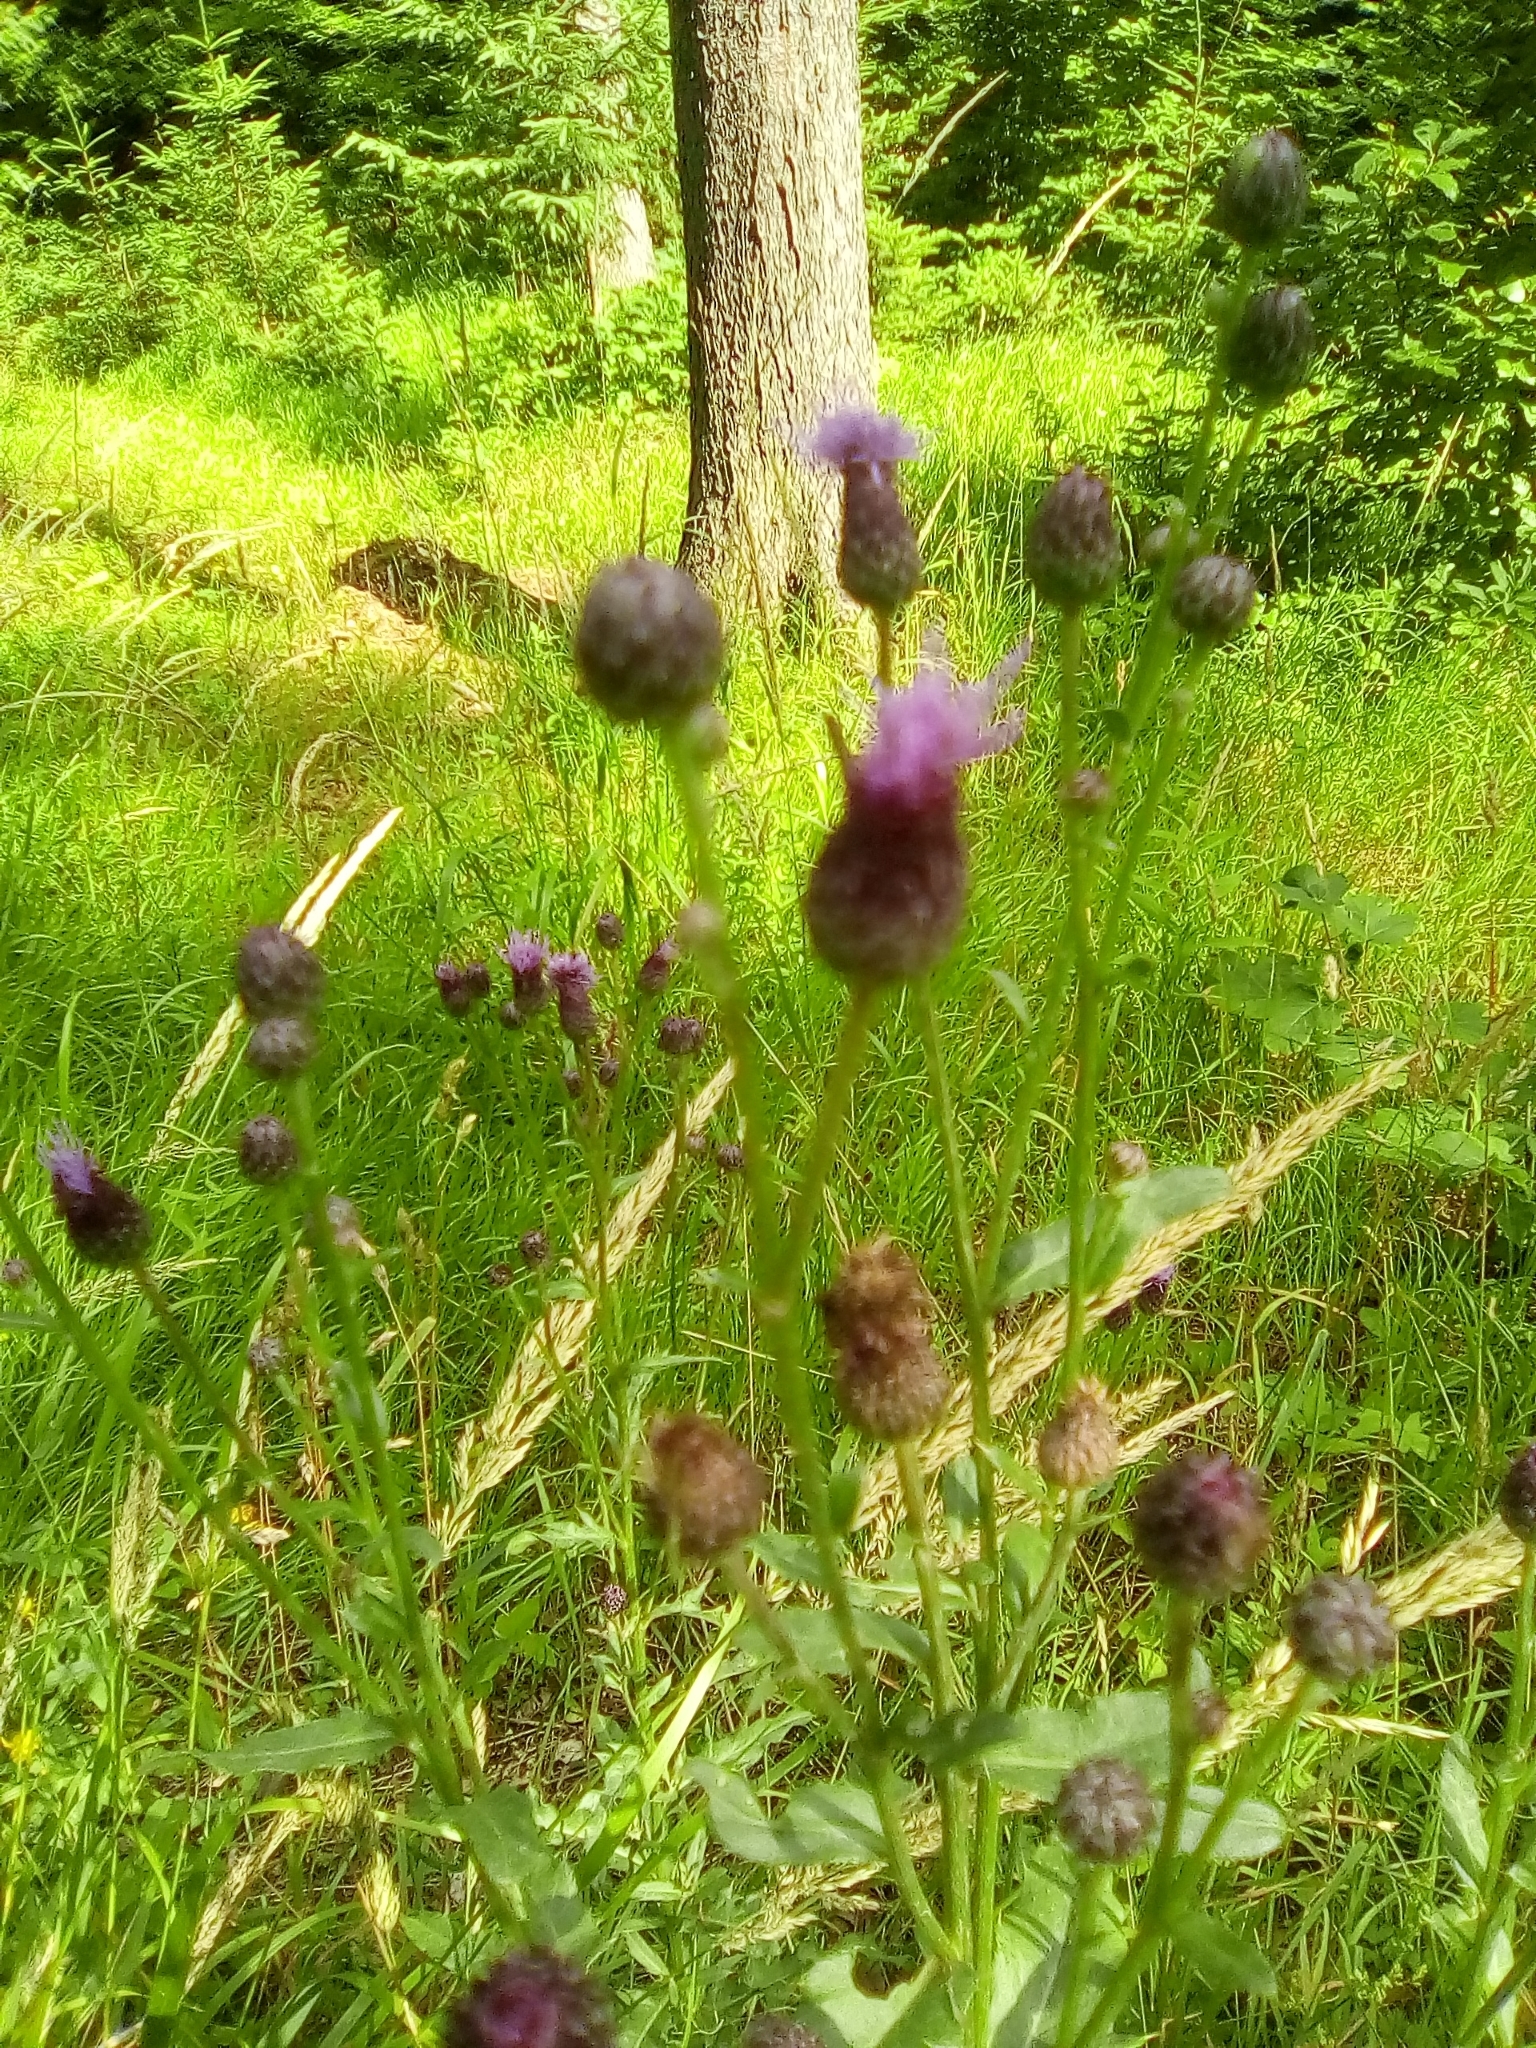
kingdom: Plantae
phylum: Tracheophyta
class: Magnoliopsida
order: Asterales
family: Asteraceae
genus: Cirsium
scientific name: Cirsium arvense
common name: Creeping thistle
